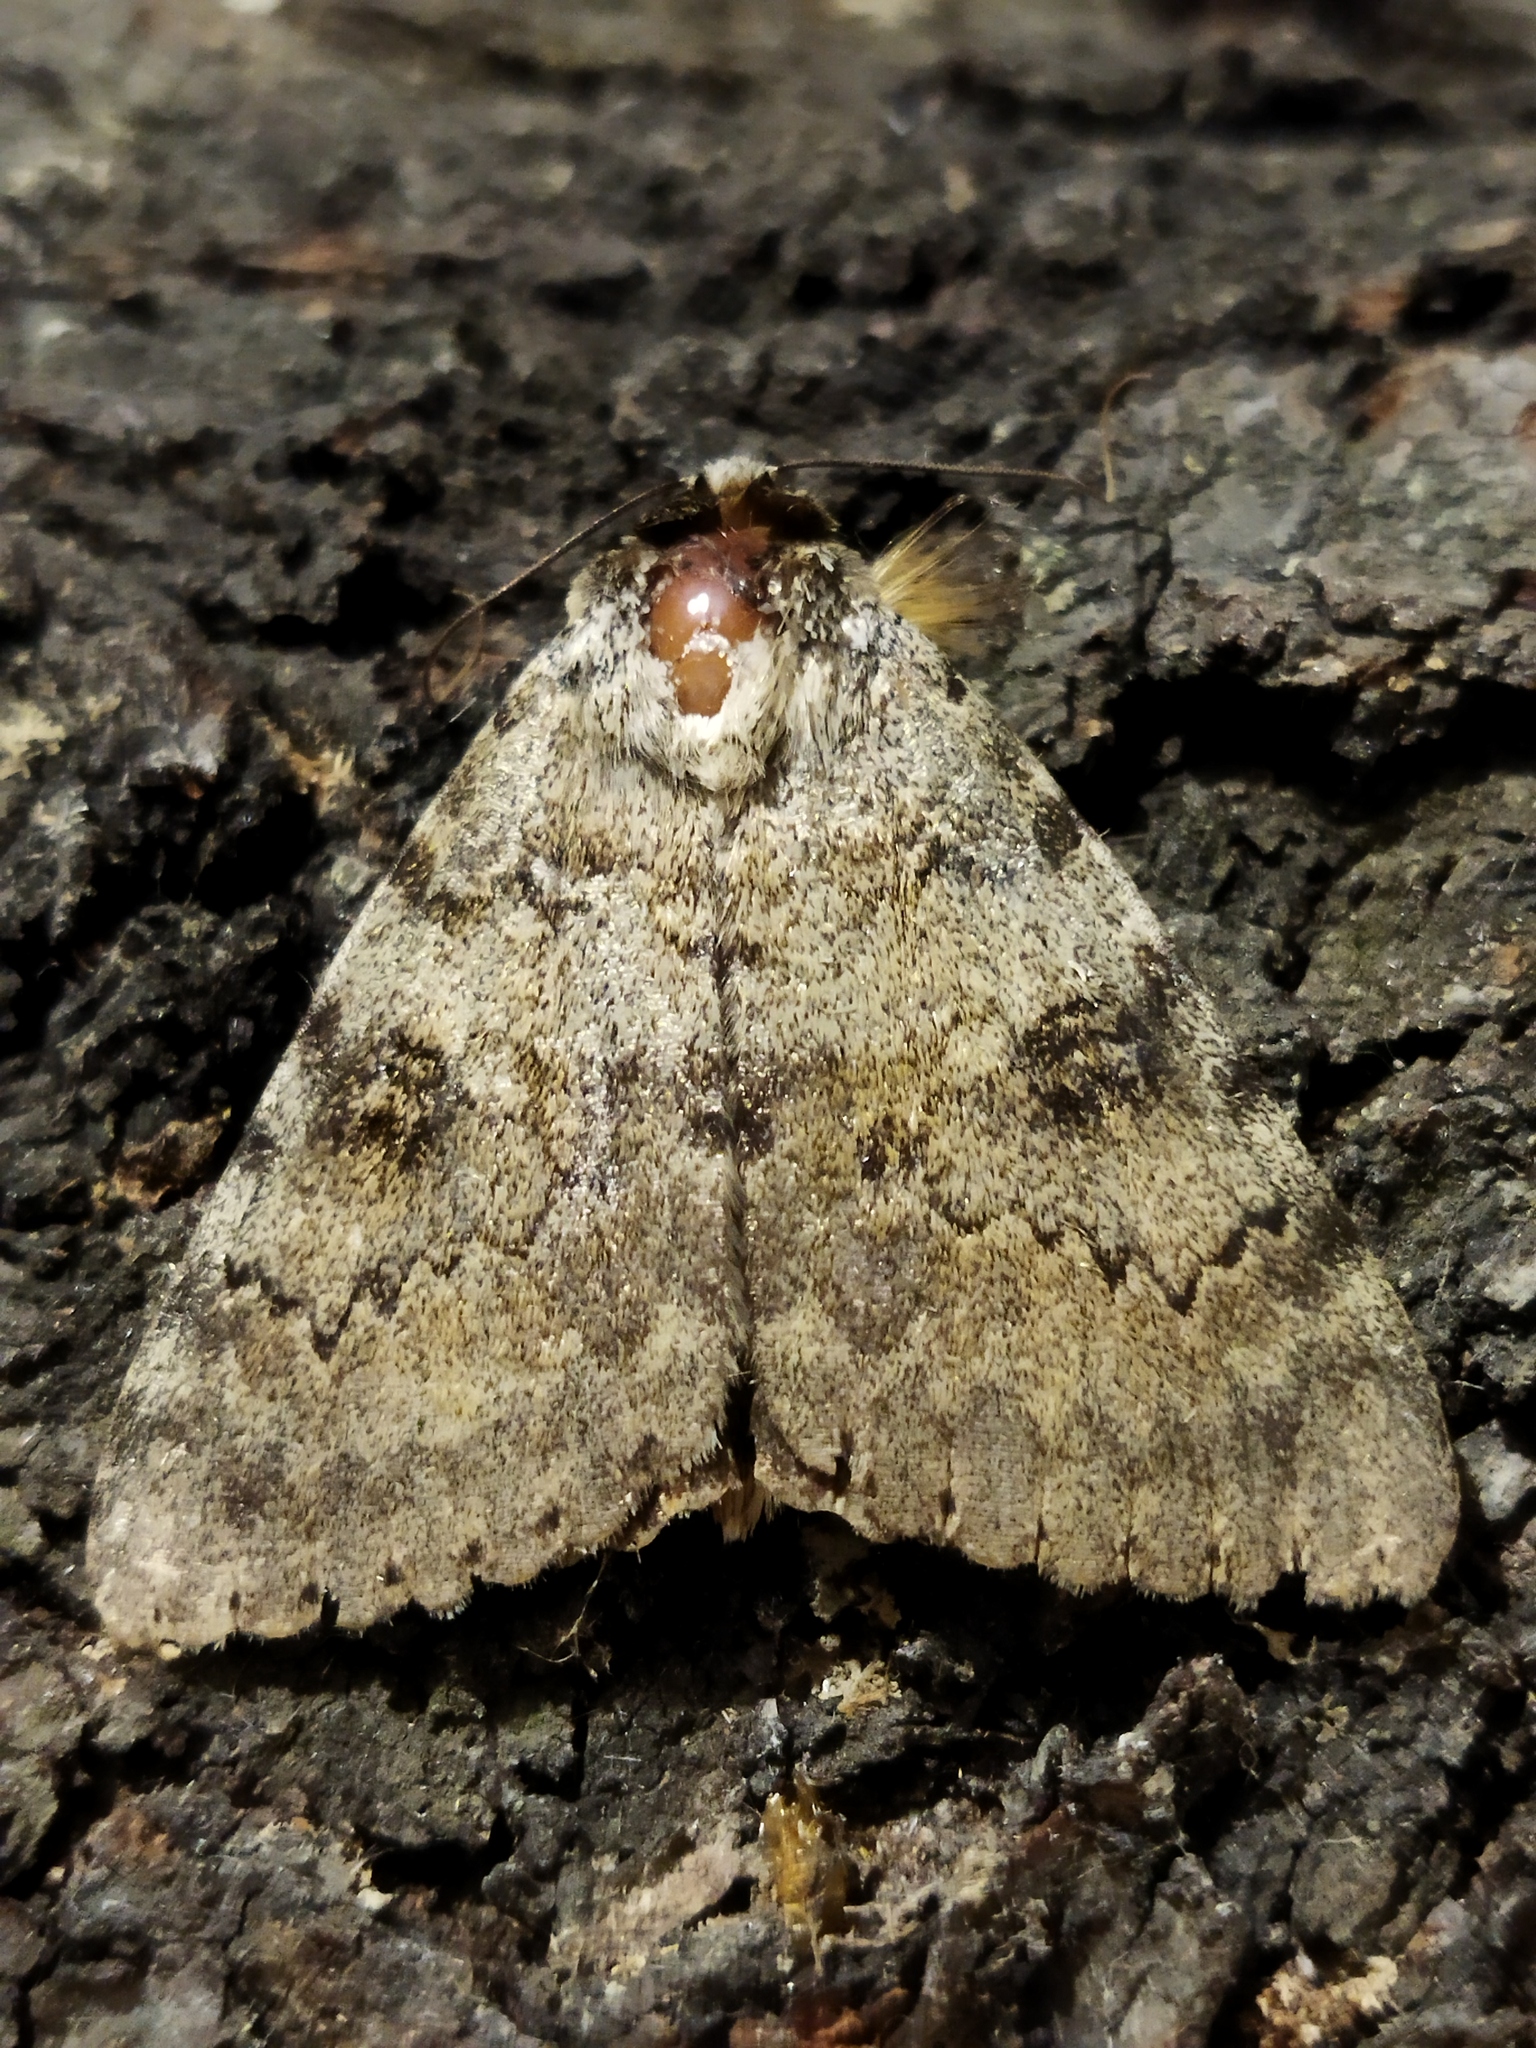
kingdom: Animalia
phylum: Arthropoda
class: Insecta
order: Lepidoptera
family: Erebidae
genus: Catocala
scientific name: Catocala puerpera
